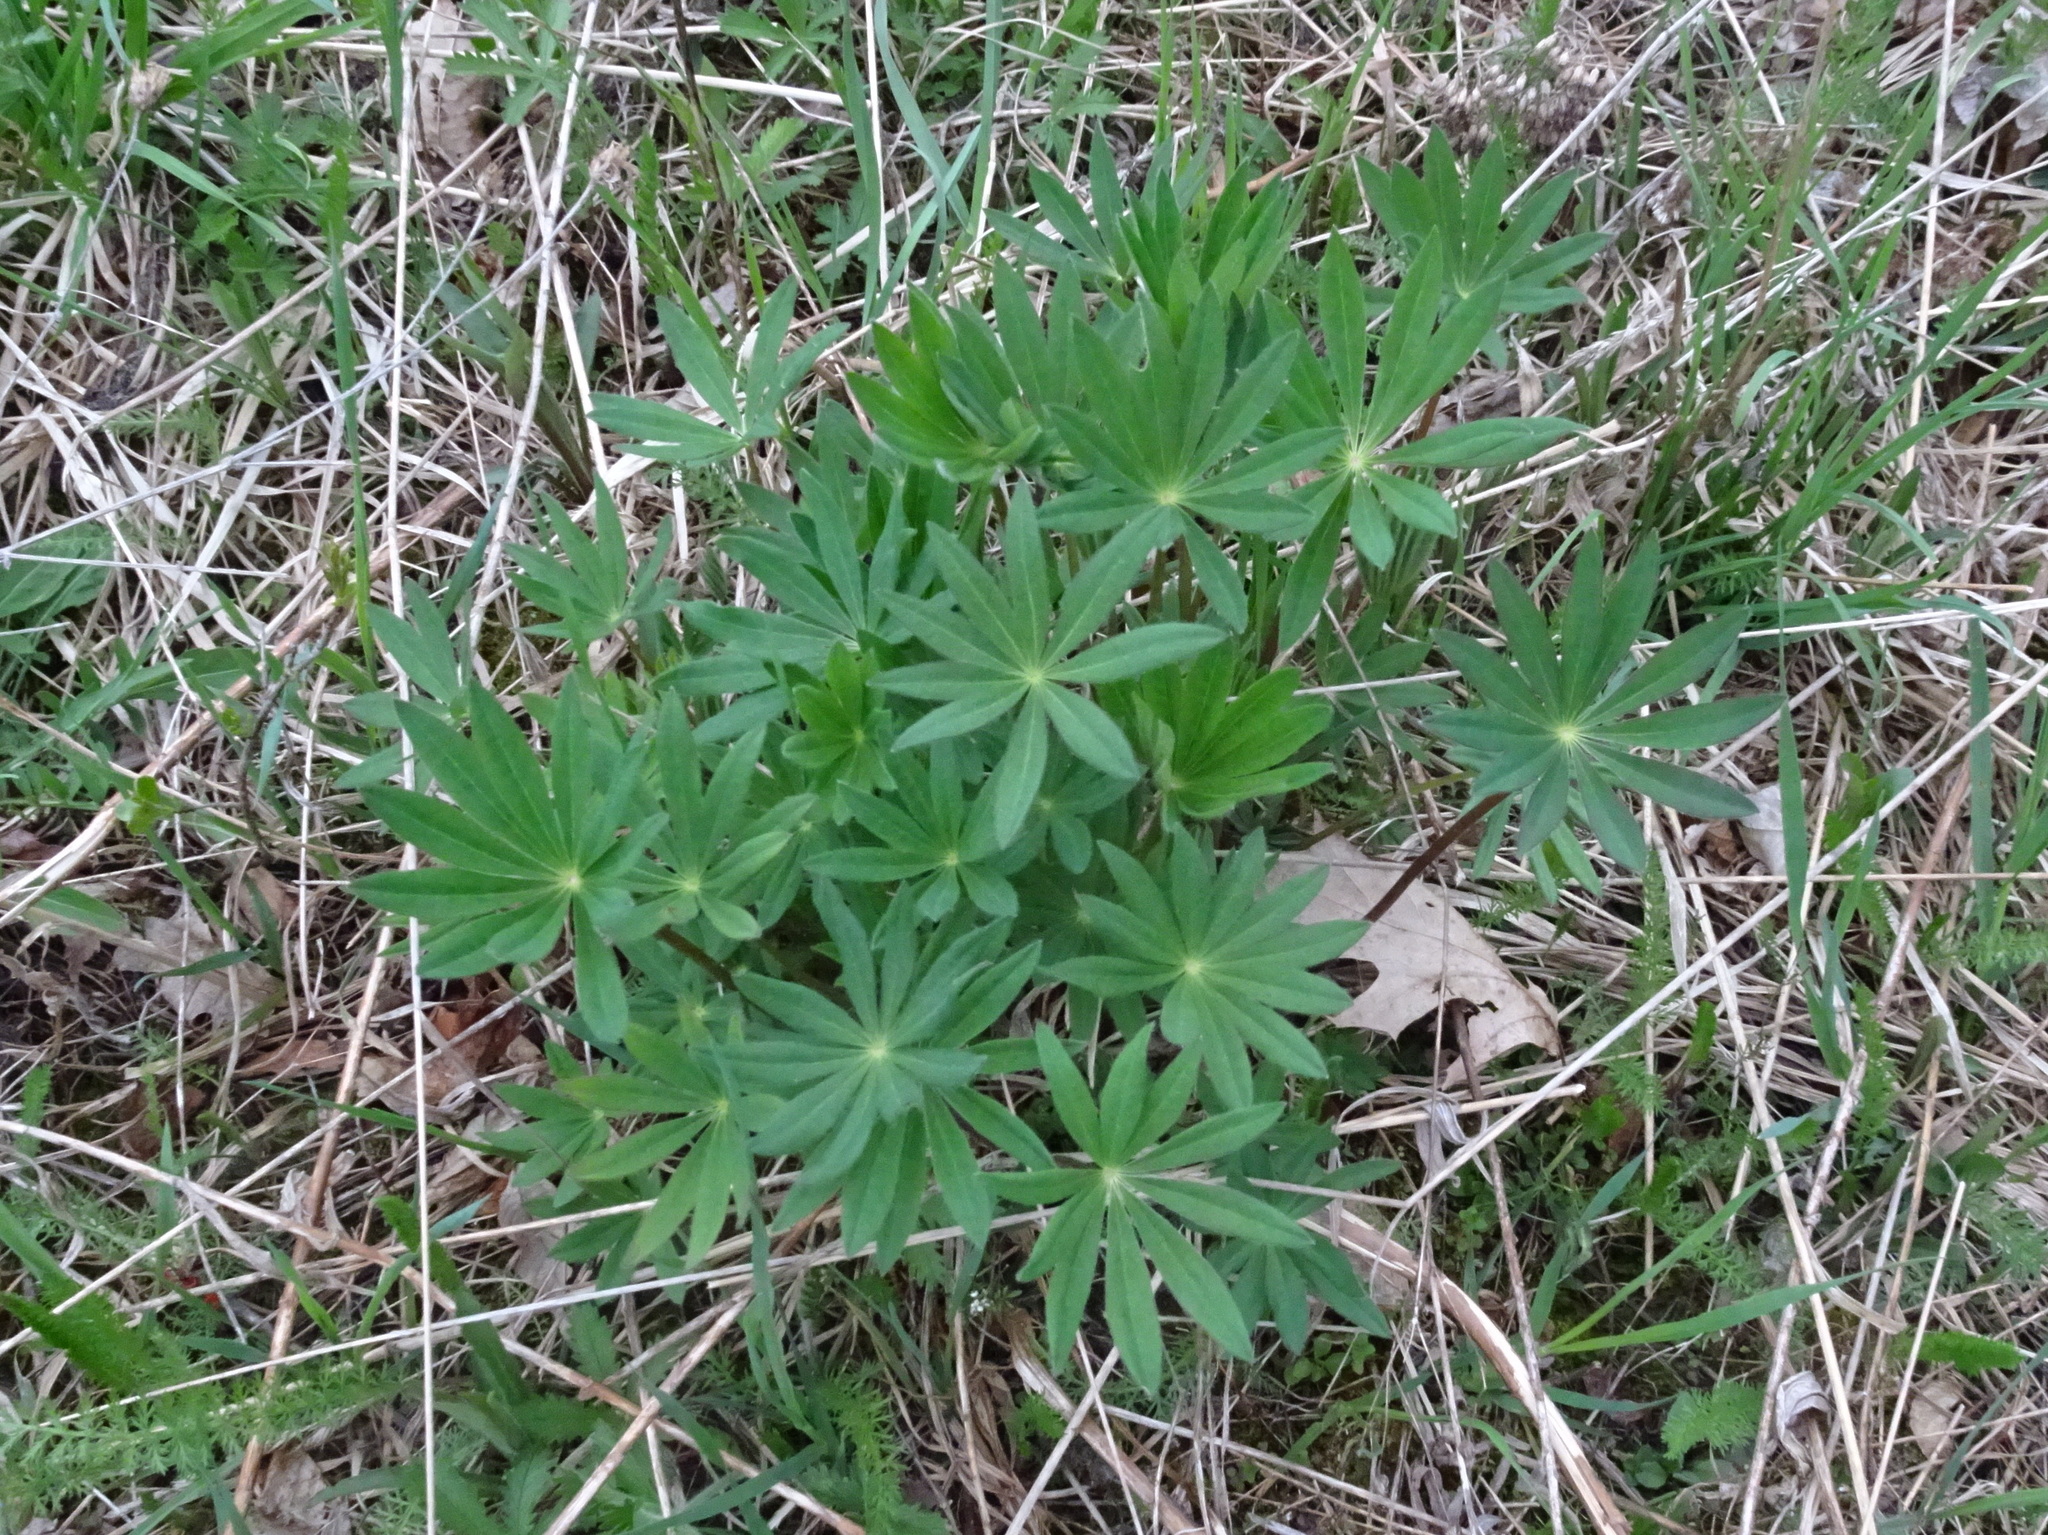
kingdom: Plantae
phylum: Tracheophyta
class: Magnoliopsida
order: Fabales
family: Fabaceae
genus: Lupinus
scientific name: Lupinus perennis
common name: Sundial lupine
